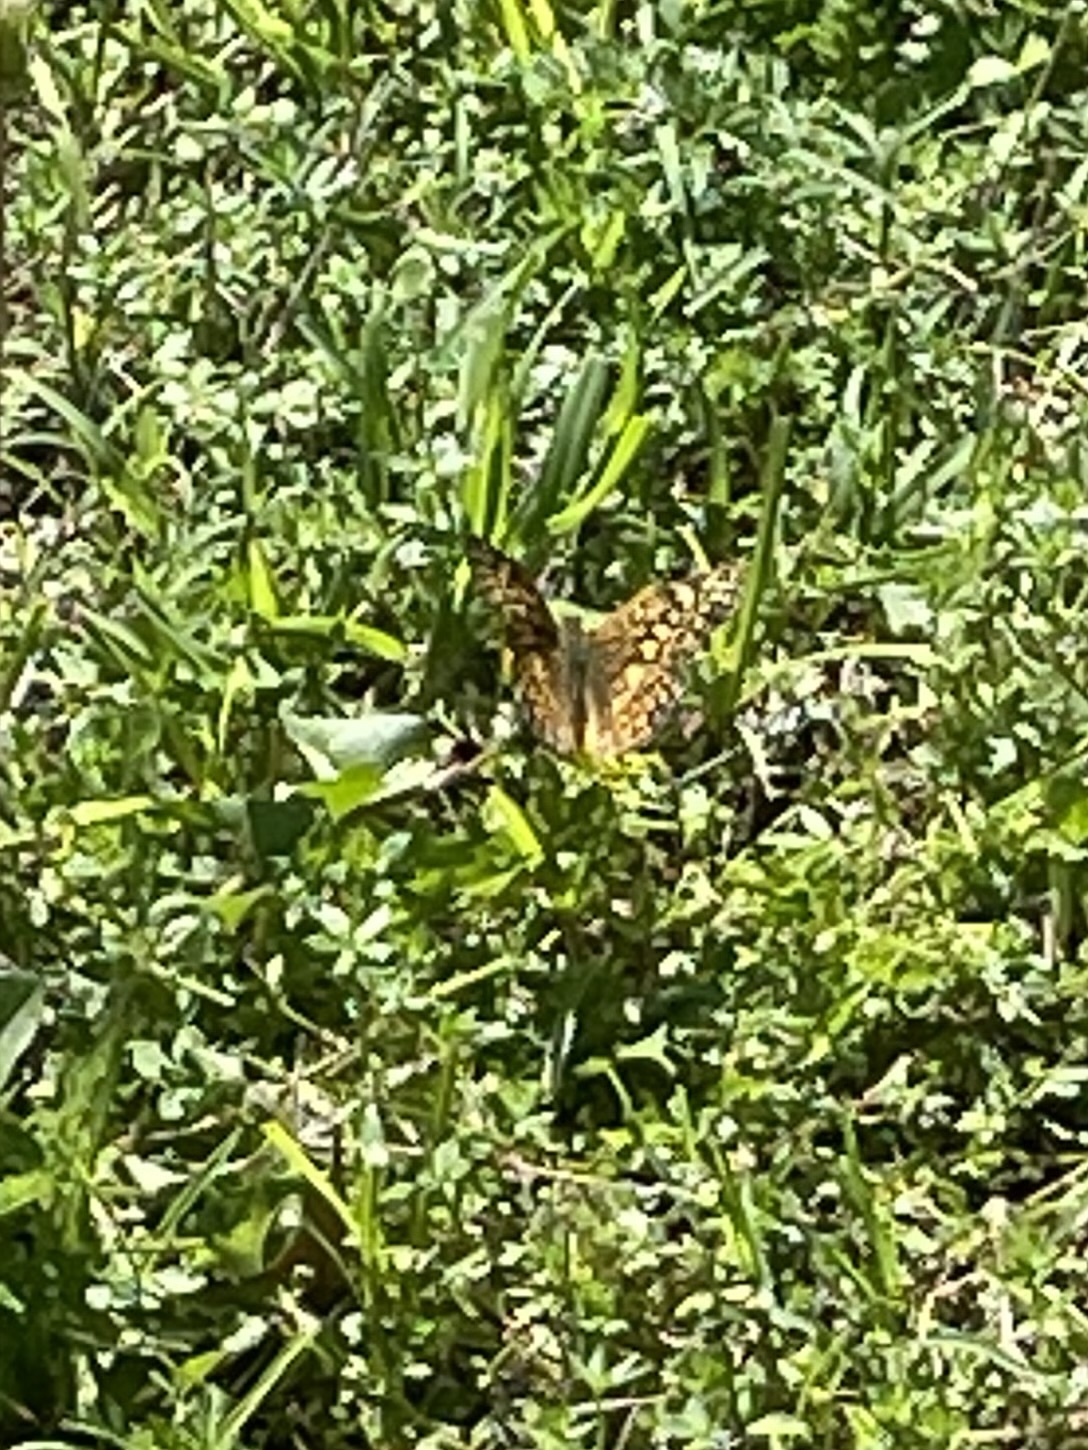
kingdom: Animalia
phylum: Arthropoda
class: Insecta
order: Lepidoptera
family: Nymphalidae
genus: Euptoieta
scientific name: Euptoieta claudia
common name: Variegated fritillary
